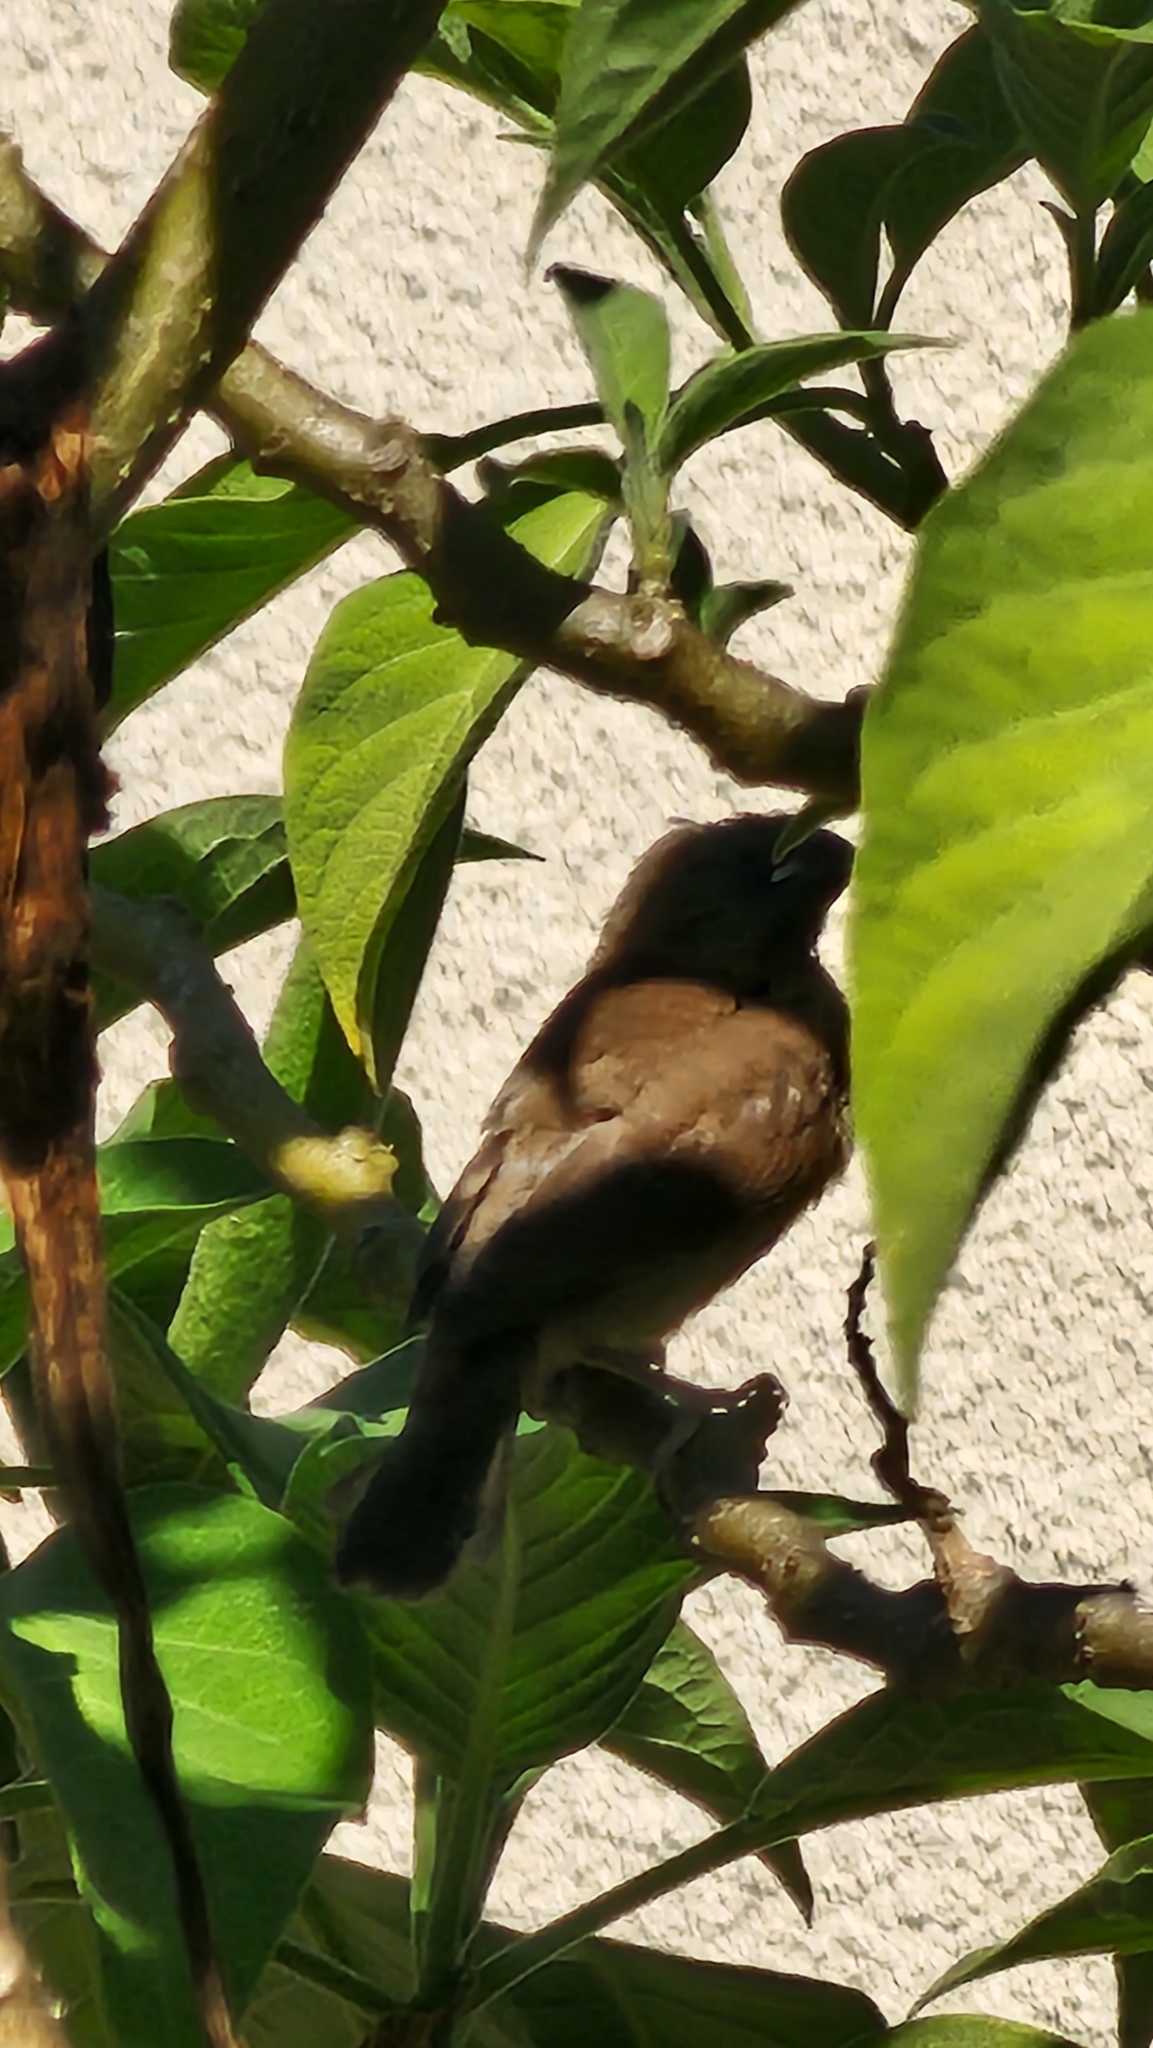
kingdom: Animalia
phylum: Chordata
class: Aves
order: Passeriformes
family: Estrildidae
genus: Lonchura
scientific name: Lonchura punctulata
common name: Scaly-breasted munia
